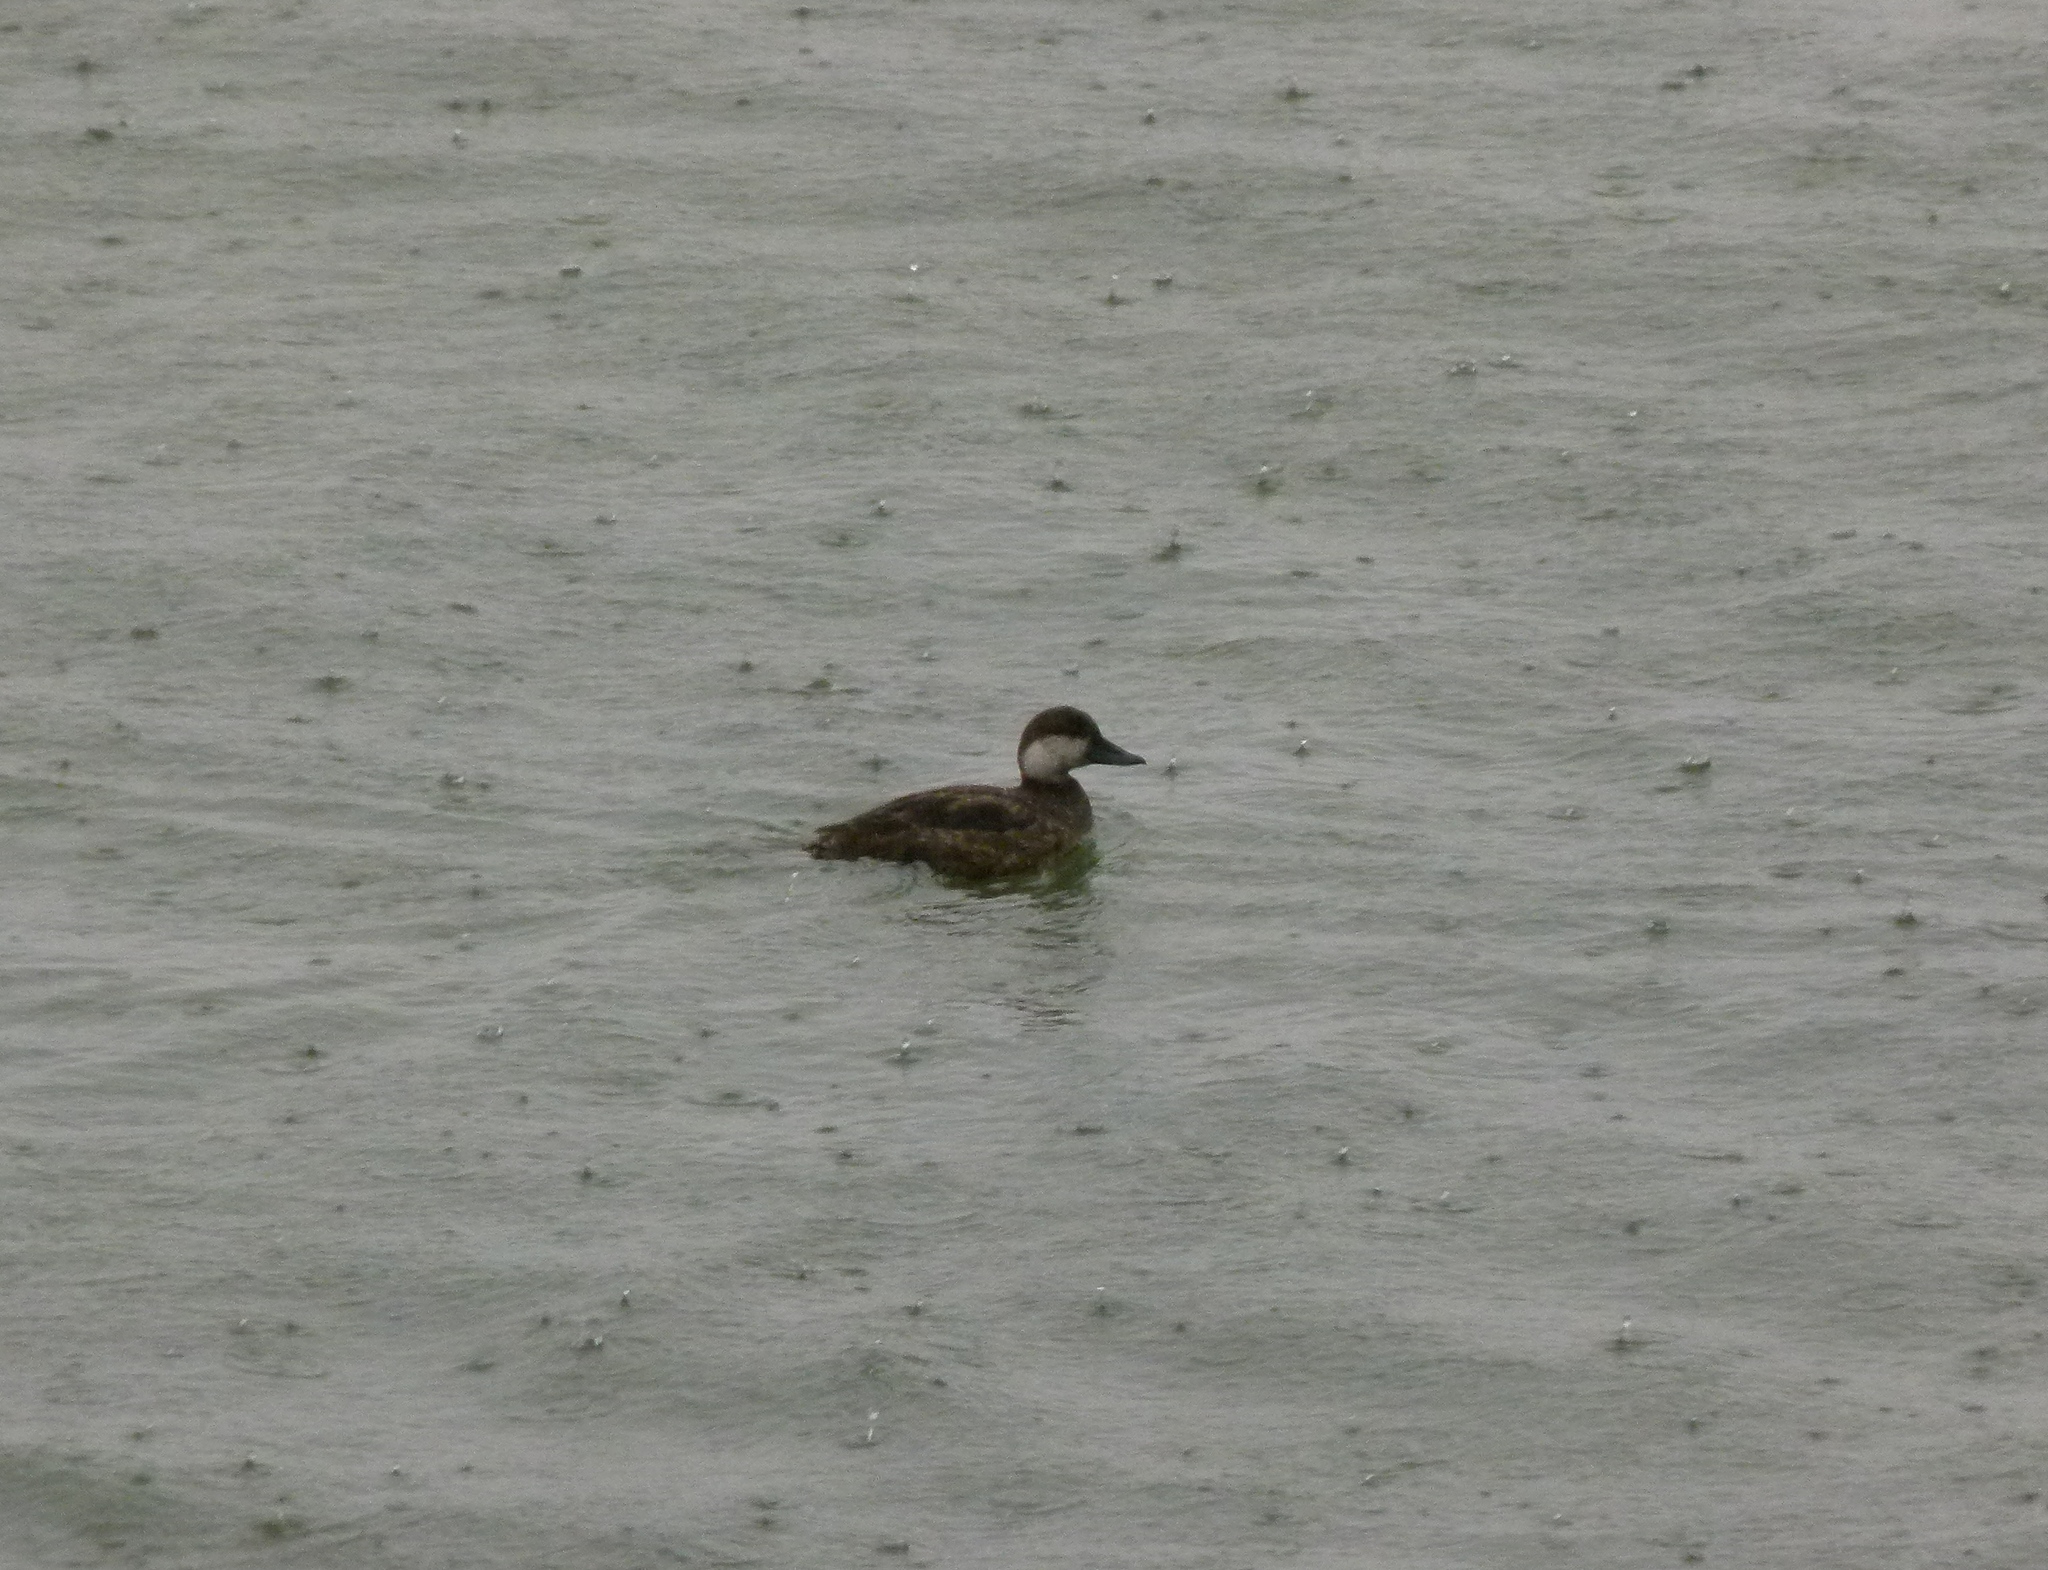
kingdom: Animalia
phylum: Chordata
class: Aves
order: Anseriformes
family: Anatidae
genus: Melanitta
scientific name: Melanitta americana
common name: Black scoter
